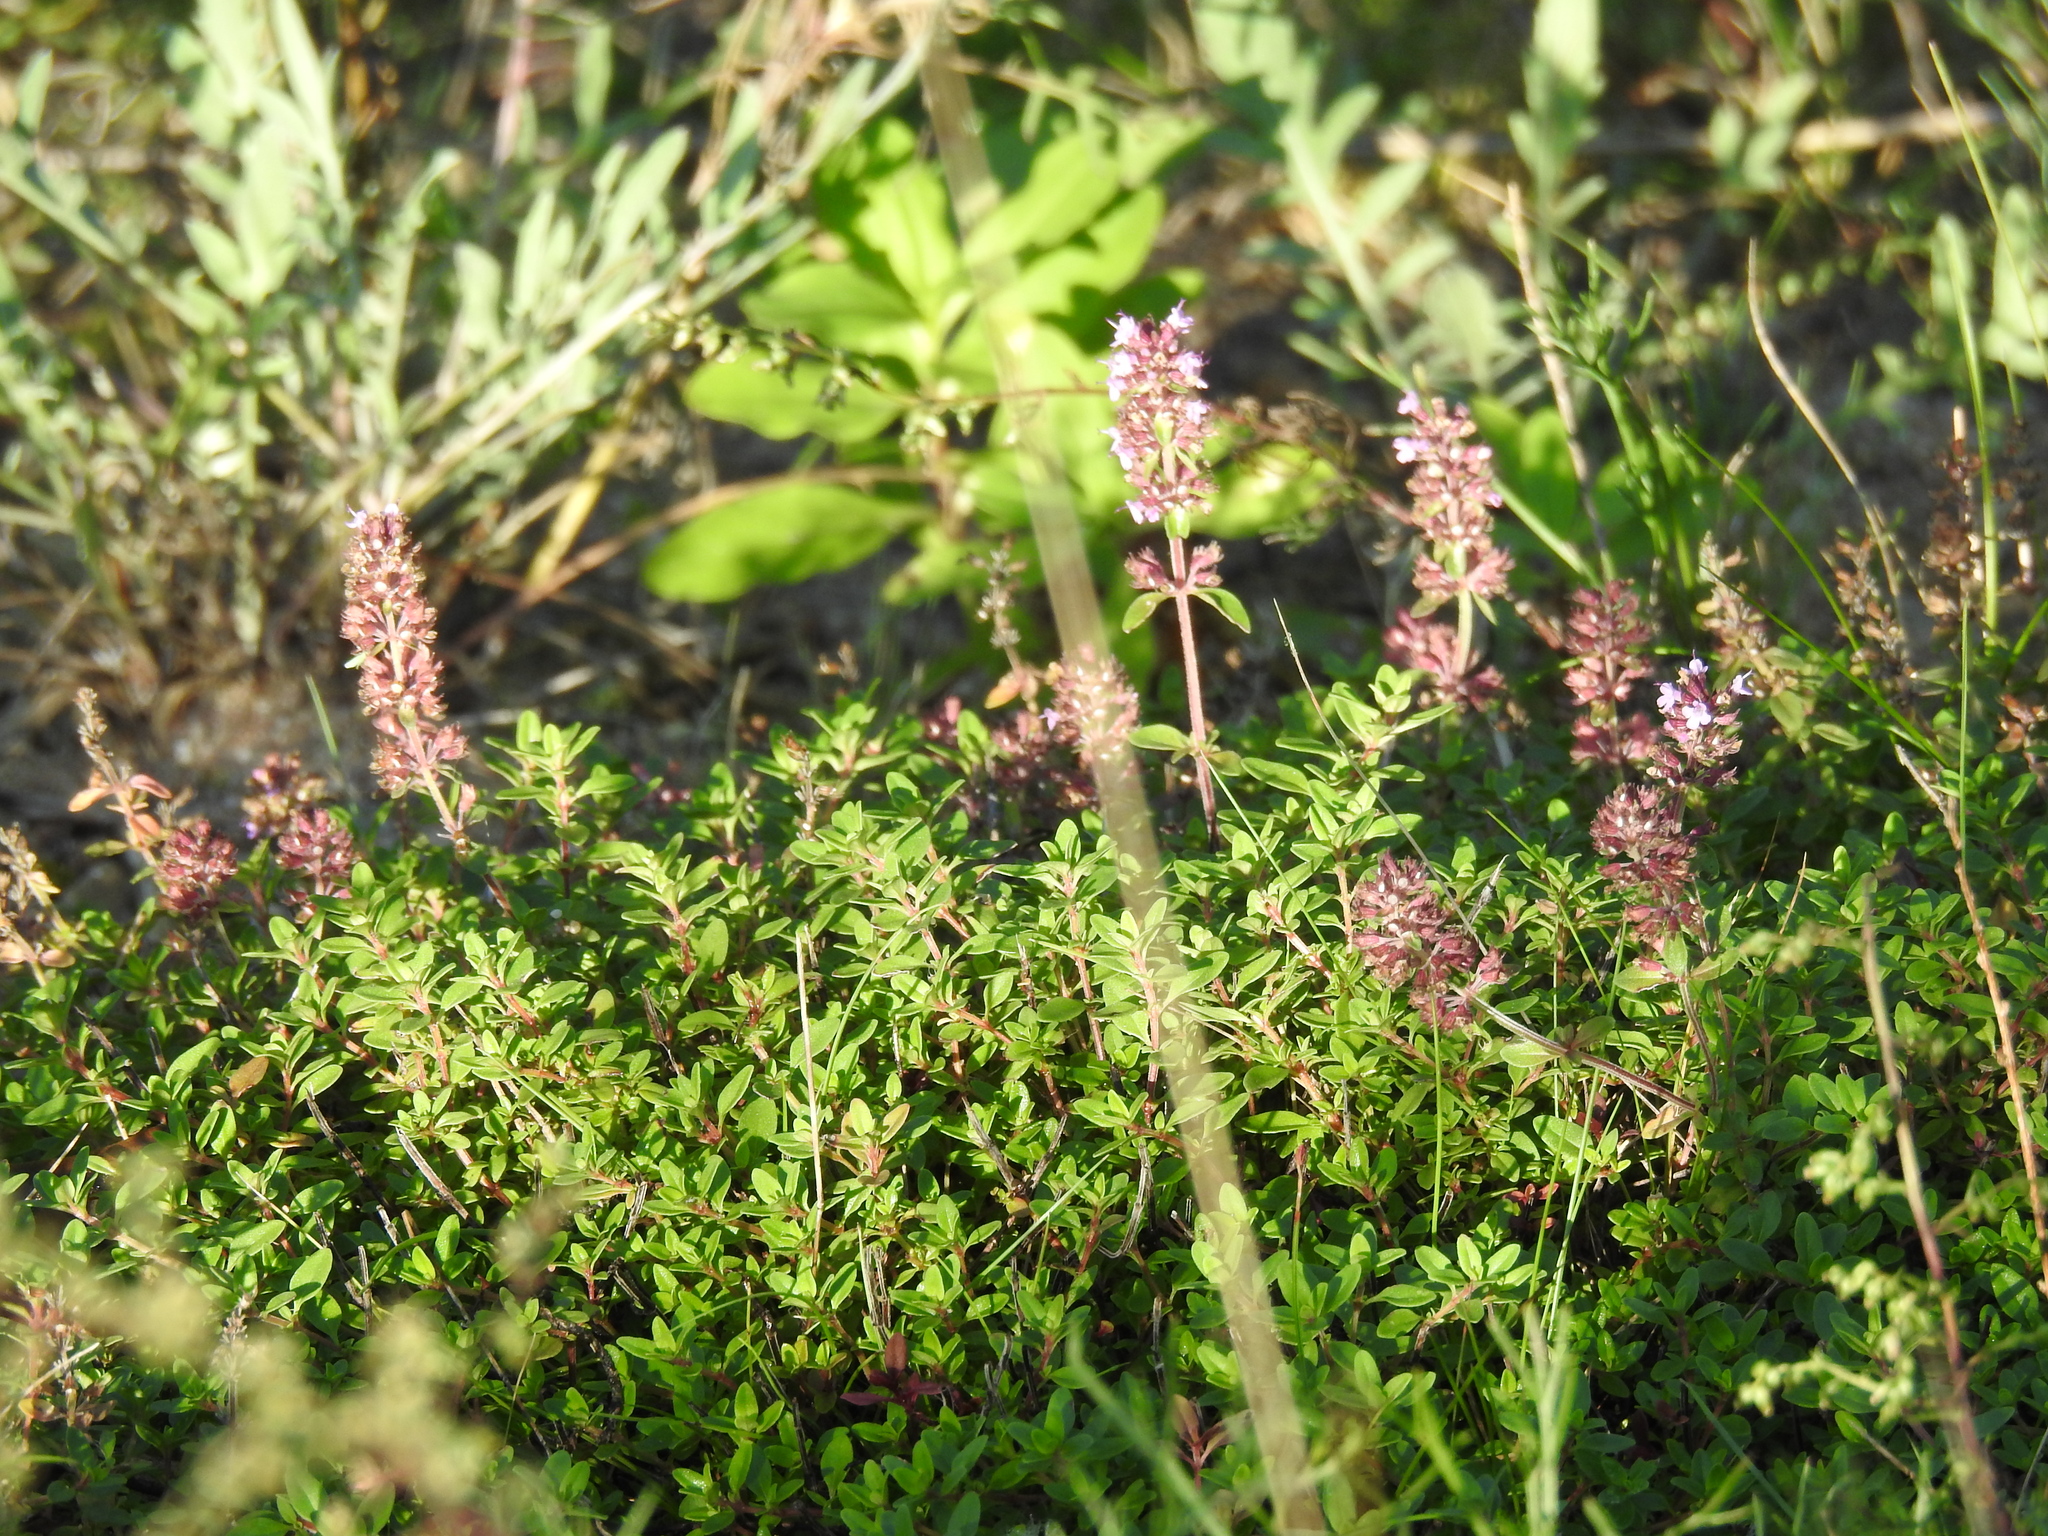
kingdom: Plantae
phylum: Tracheophyta
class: Magnoliopsida
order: Lamiales
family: Lamiaceae
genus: Thymus
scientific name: Thymus pulegioides
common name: Large thyme
